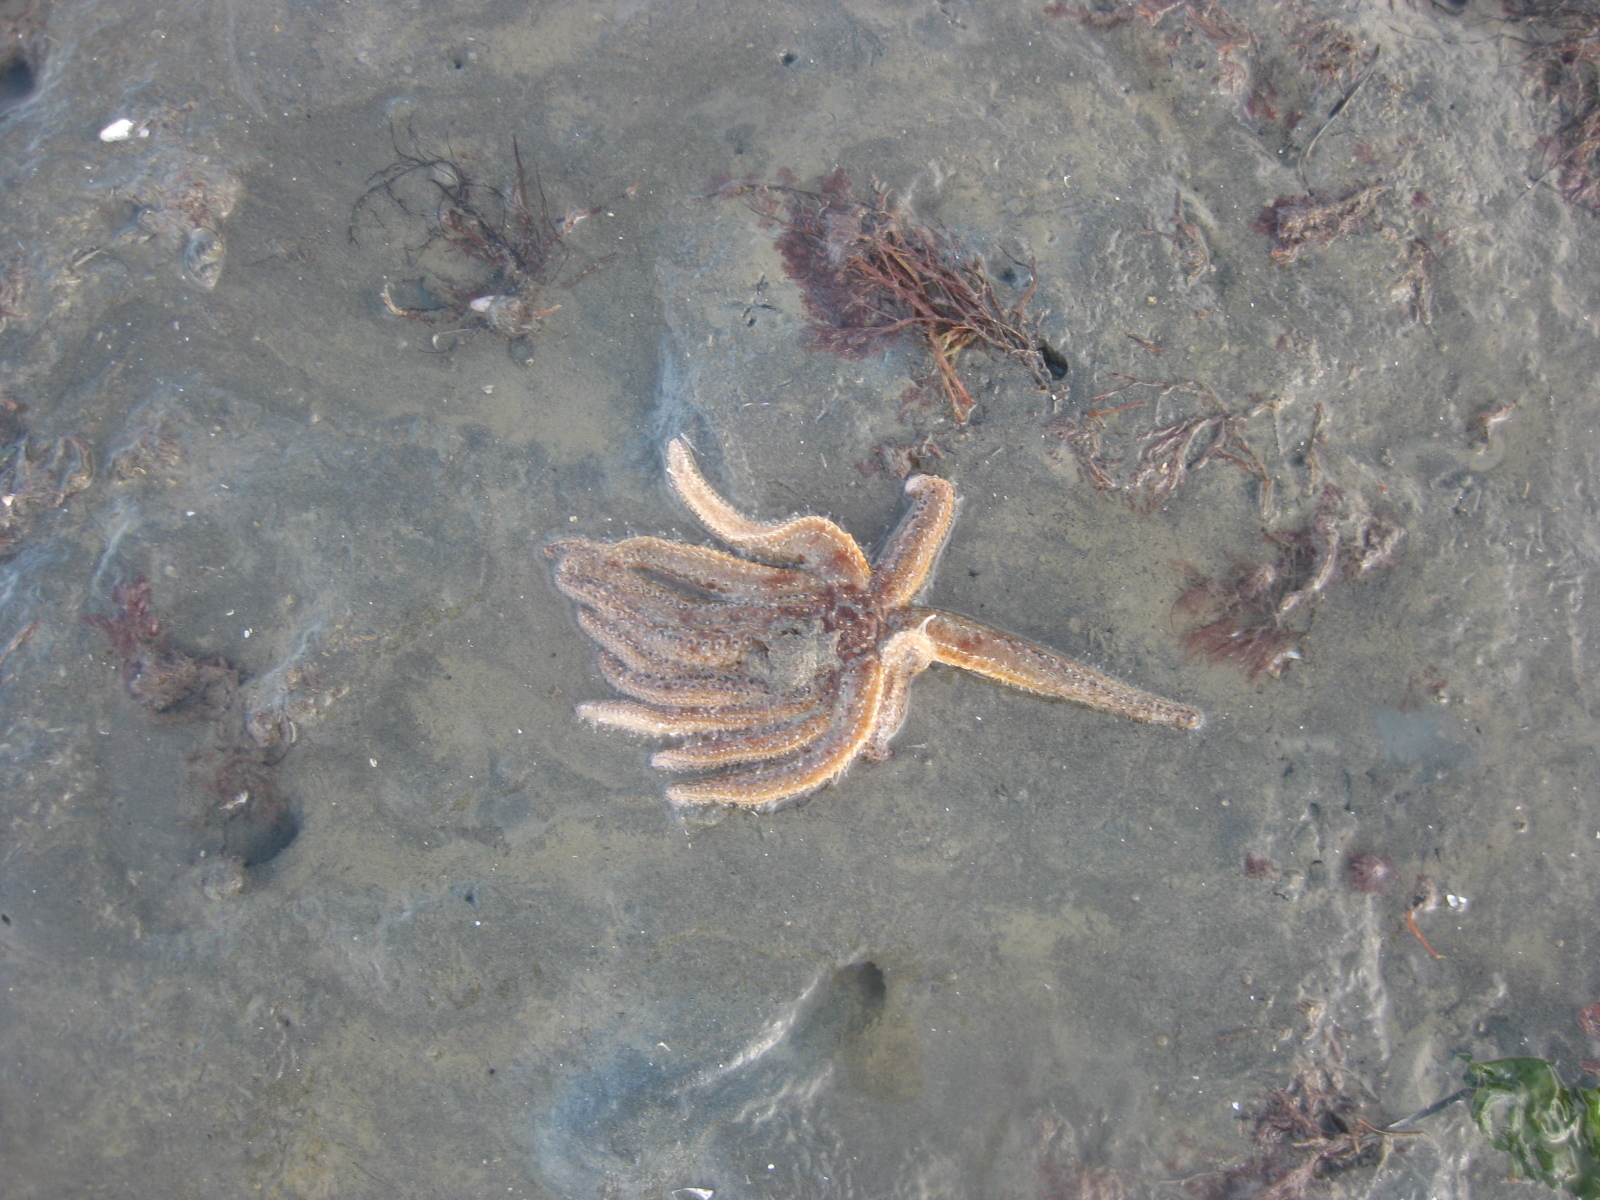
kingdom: Animalia
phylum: Echinodermata
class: Asteroidea
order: Forcipulatida
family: Asteriidae
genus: Coscinasterias
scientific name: Coscinasterias muricata
